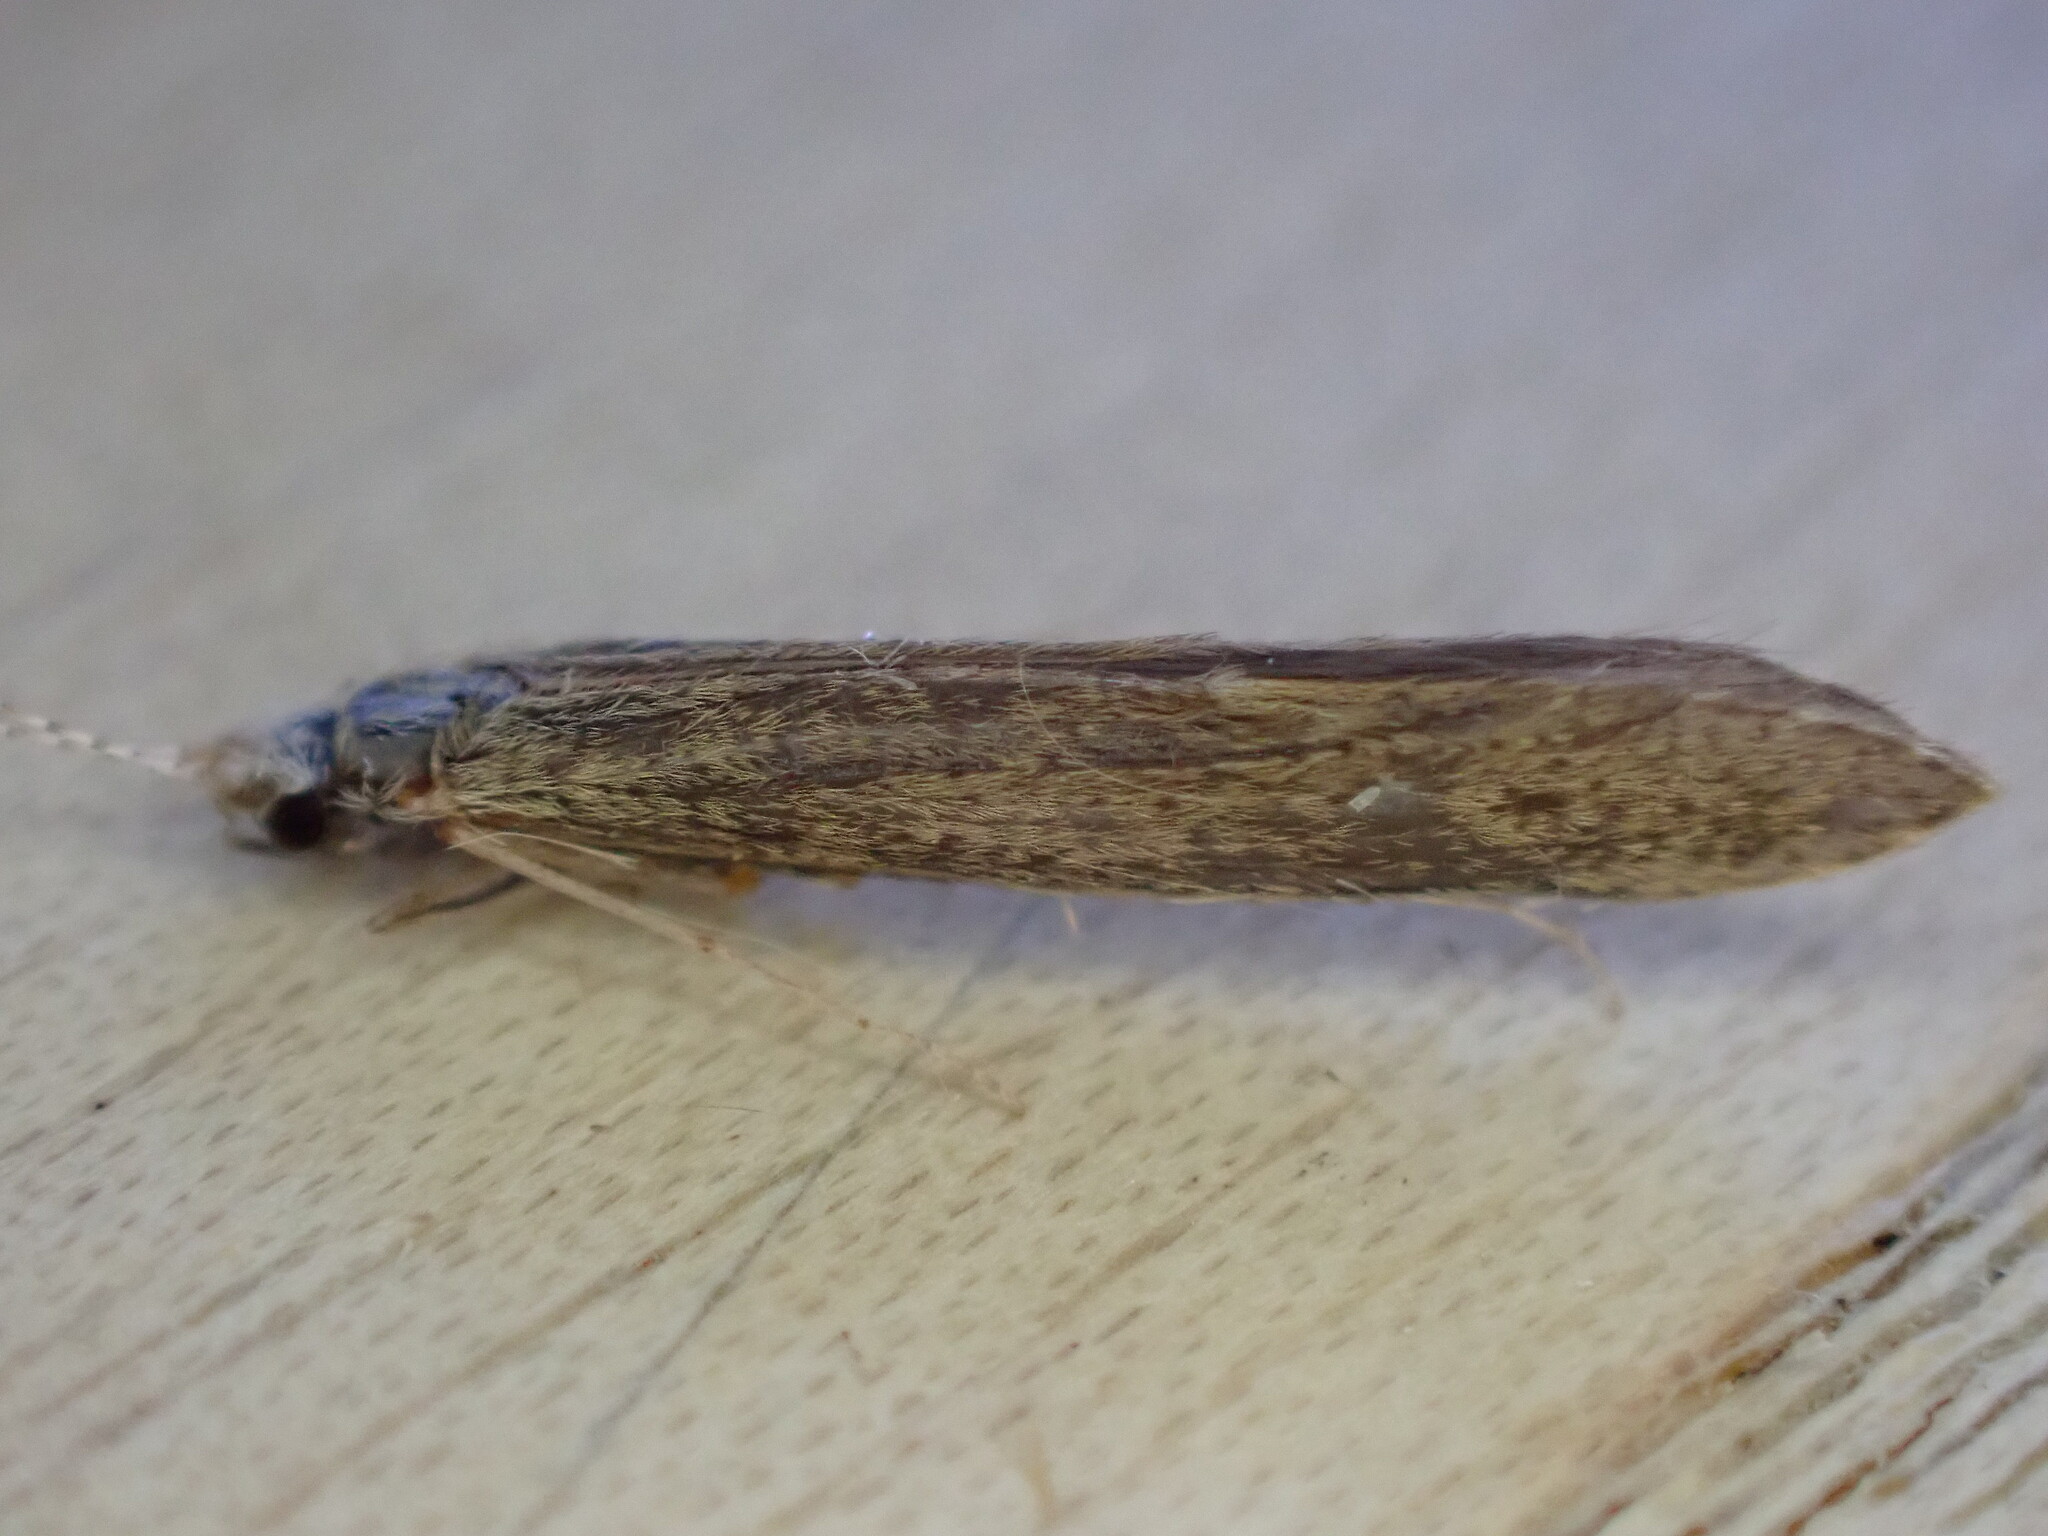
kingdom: Animalia
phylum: Arthropoda
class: Insecta
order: Trichoptera
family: Leptoceridae
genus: Leptocerus
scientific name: Leptocerus tineiformis
